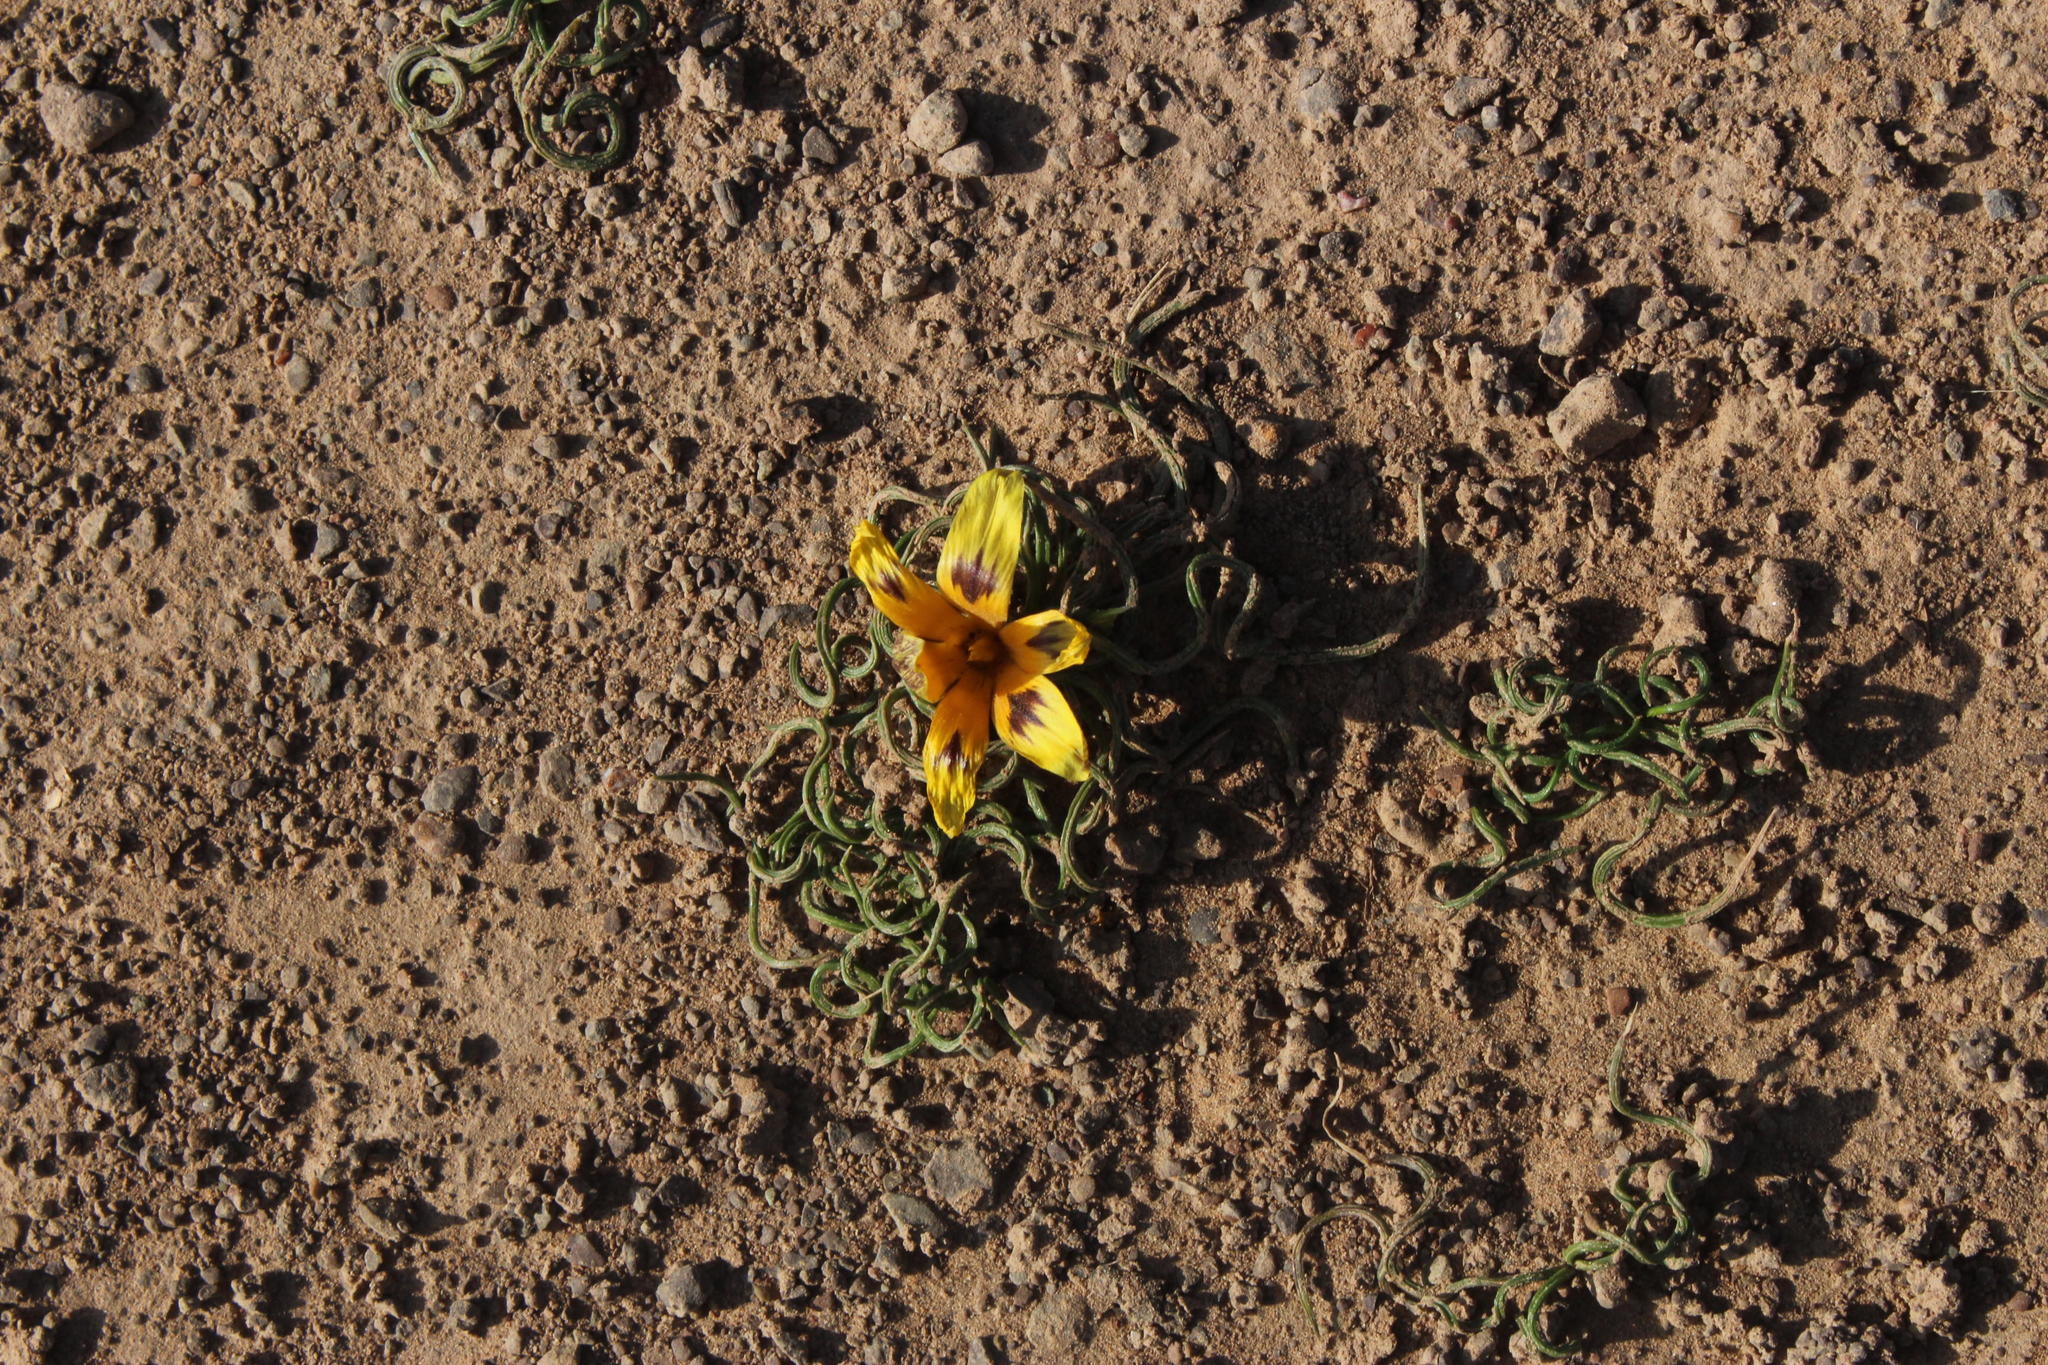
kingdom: Plantae
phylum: Tracheophyta
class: Liliopsida
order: Asparagales
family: Iridaceae
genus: Romulea
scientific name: Romulea tortuosa
